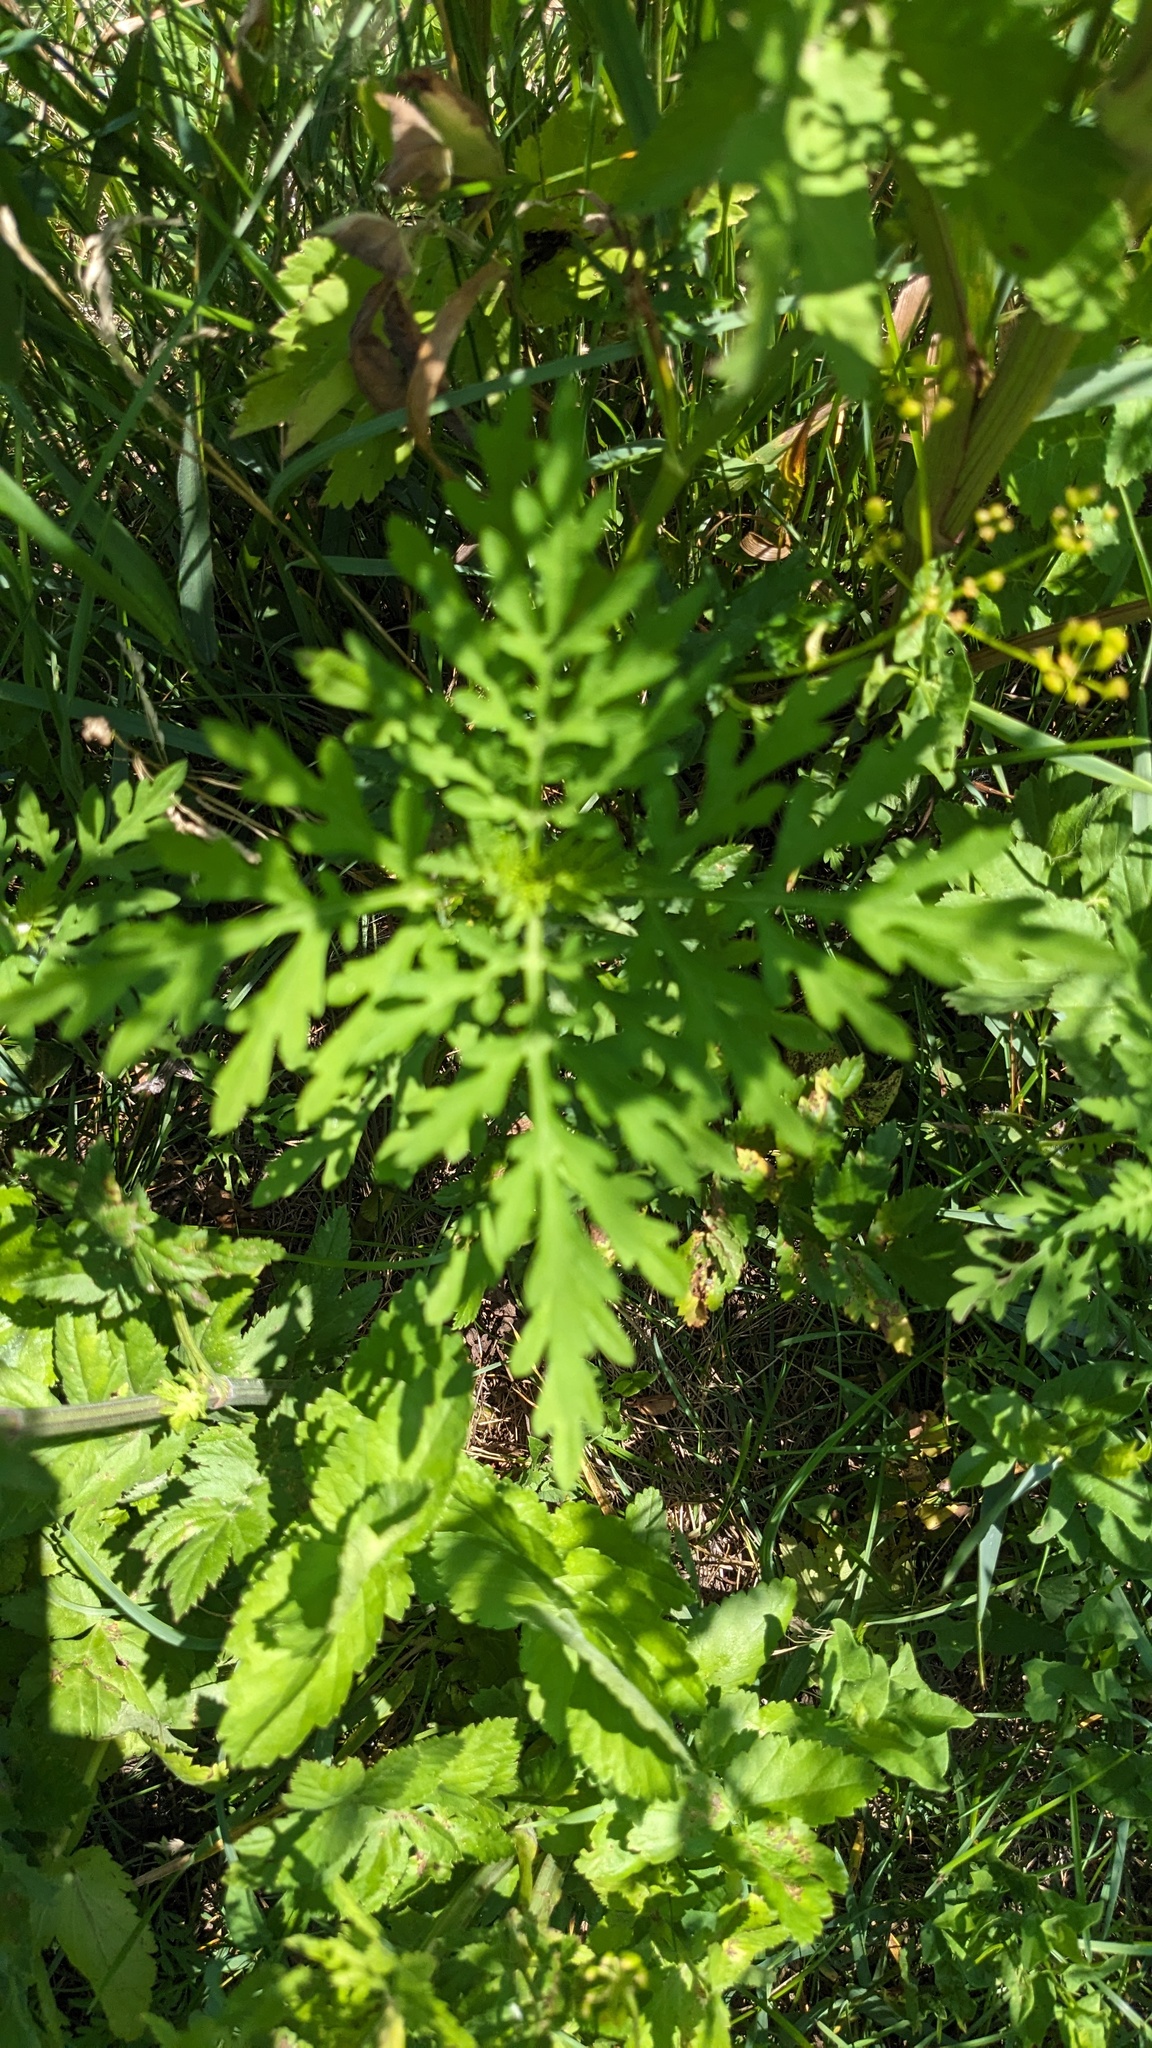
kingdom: Plantae
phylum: Tracheophyta
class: Magnoliopsida
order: Asterales
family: Asteraceae
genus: Ambrosia
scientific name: Ambrosia artemisiifolia
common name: Annual ragweed
